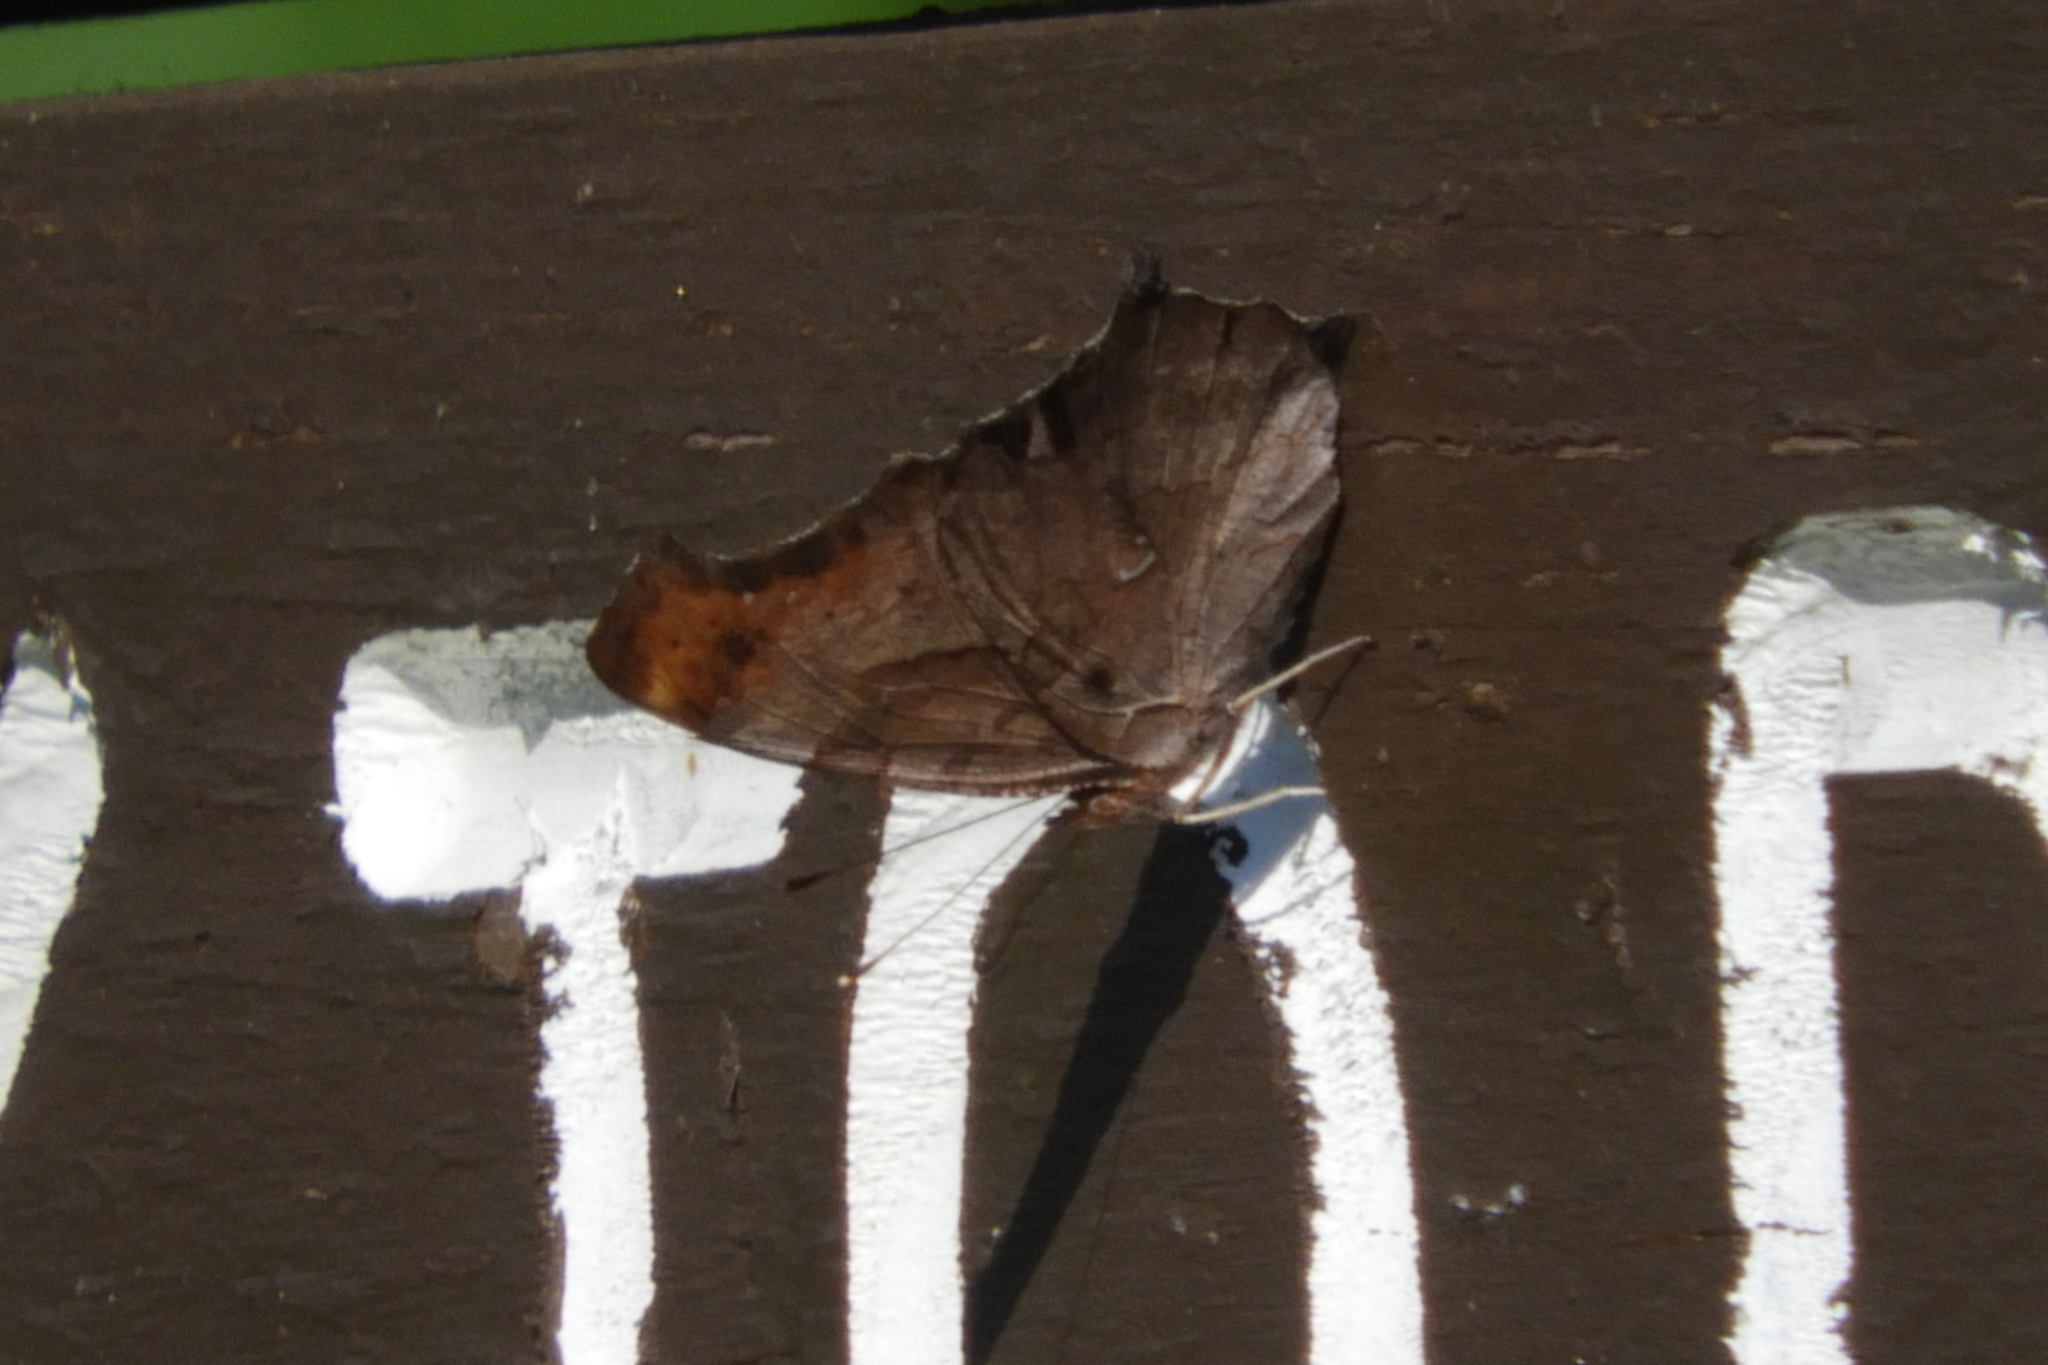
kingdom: Animalia
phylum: Arthropoda
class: Insecta
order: Lepidoptera
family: Nymphalidae
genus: Polygonia
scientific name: Polygonia interrogationis
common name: Question mark
